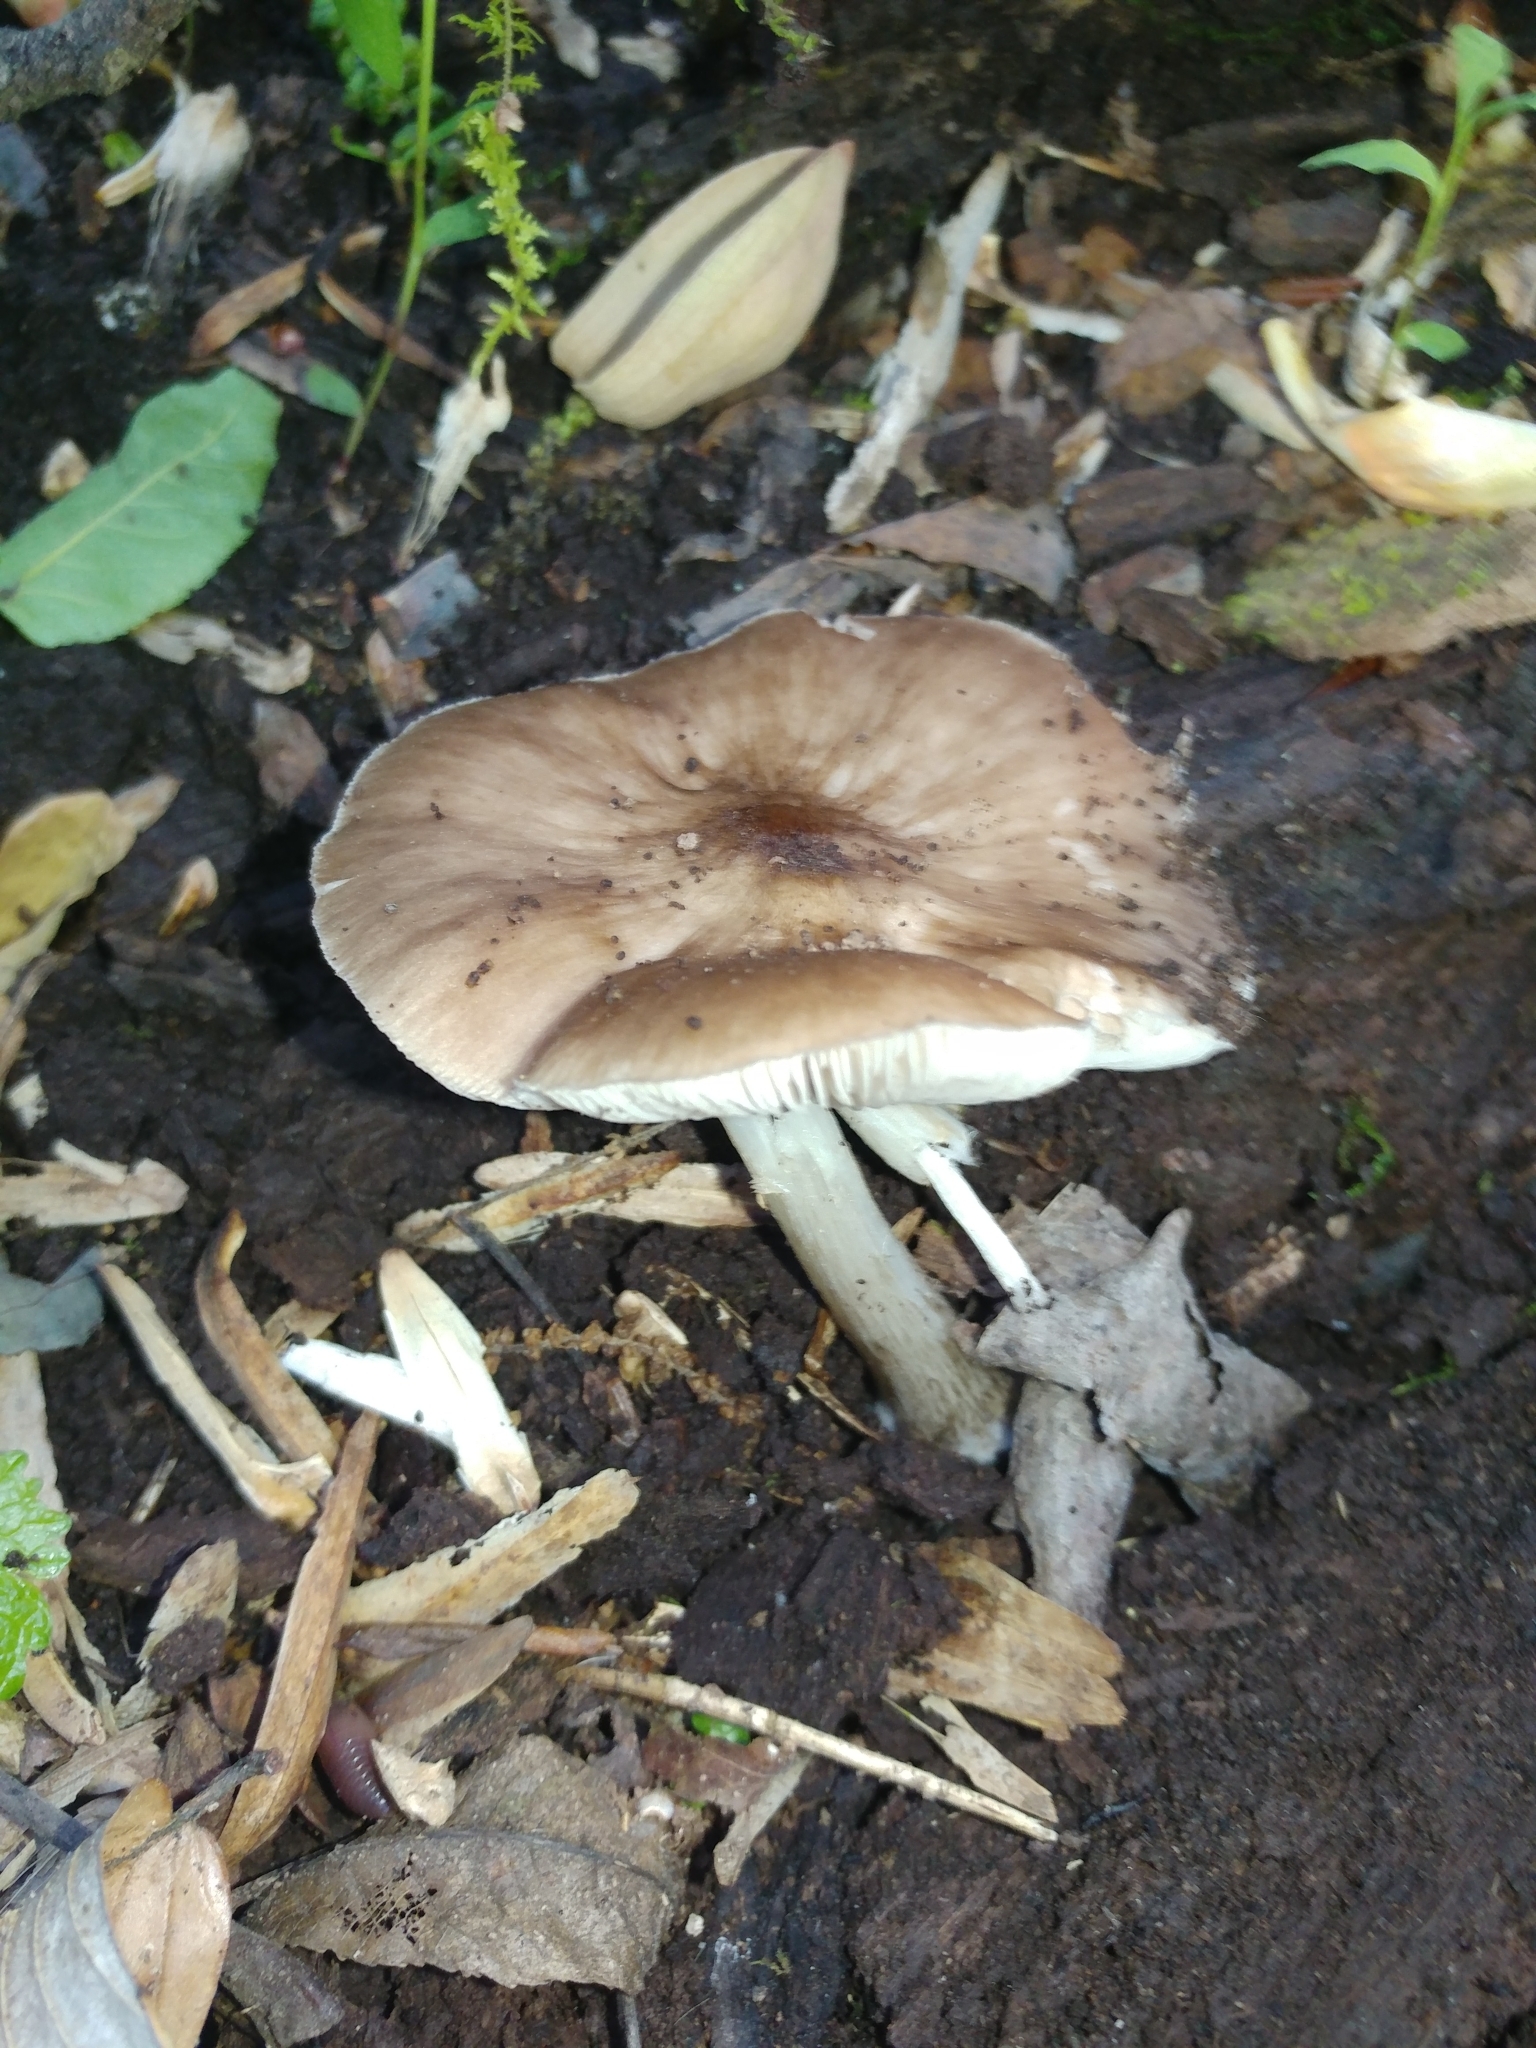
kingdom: Fungi
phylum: Basidiomycota
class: Agaricomycetes
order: Agaricales
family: Pluteaceae
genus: Pluteus
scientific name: Pluteus cervinus
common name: Deer shield
